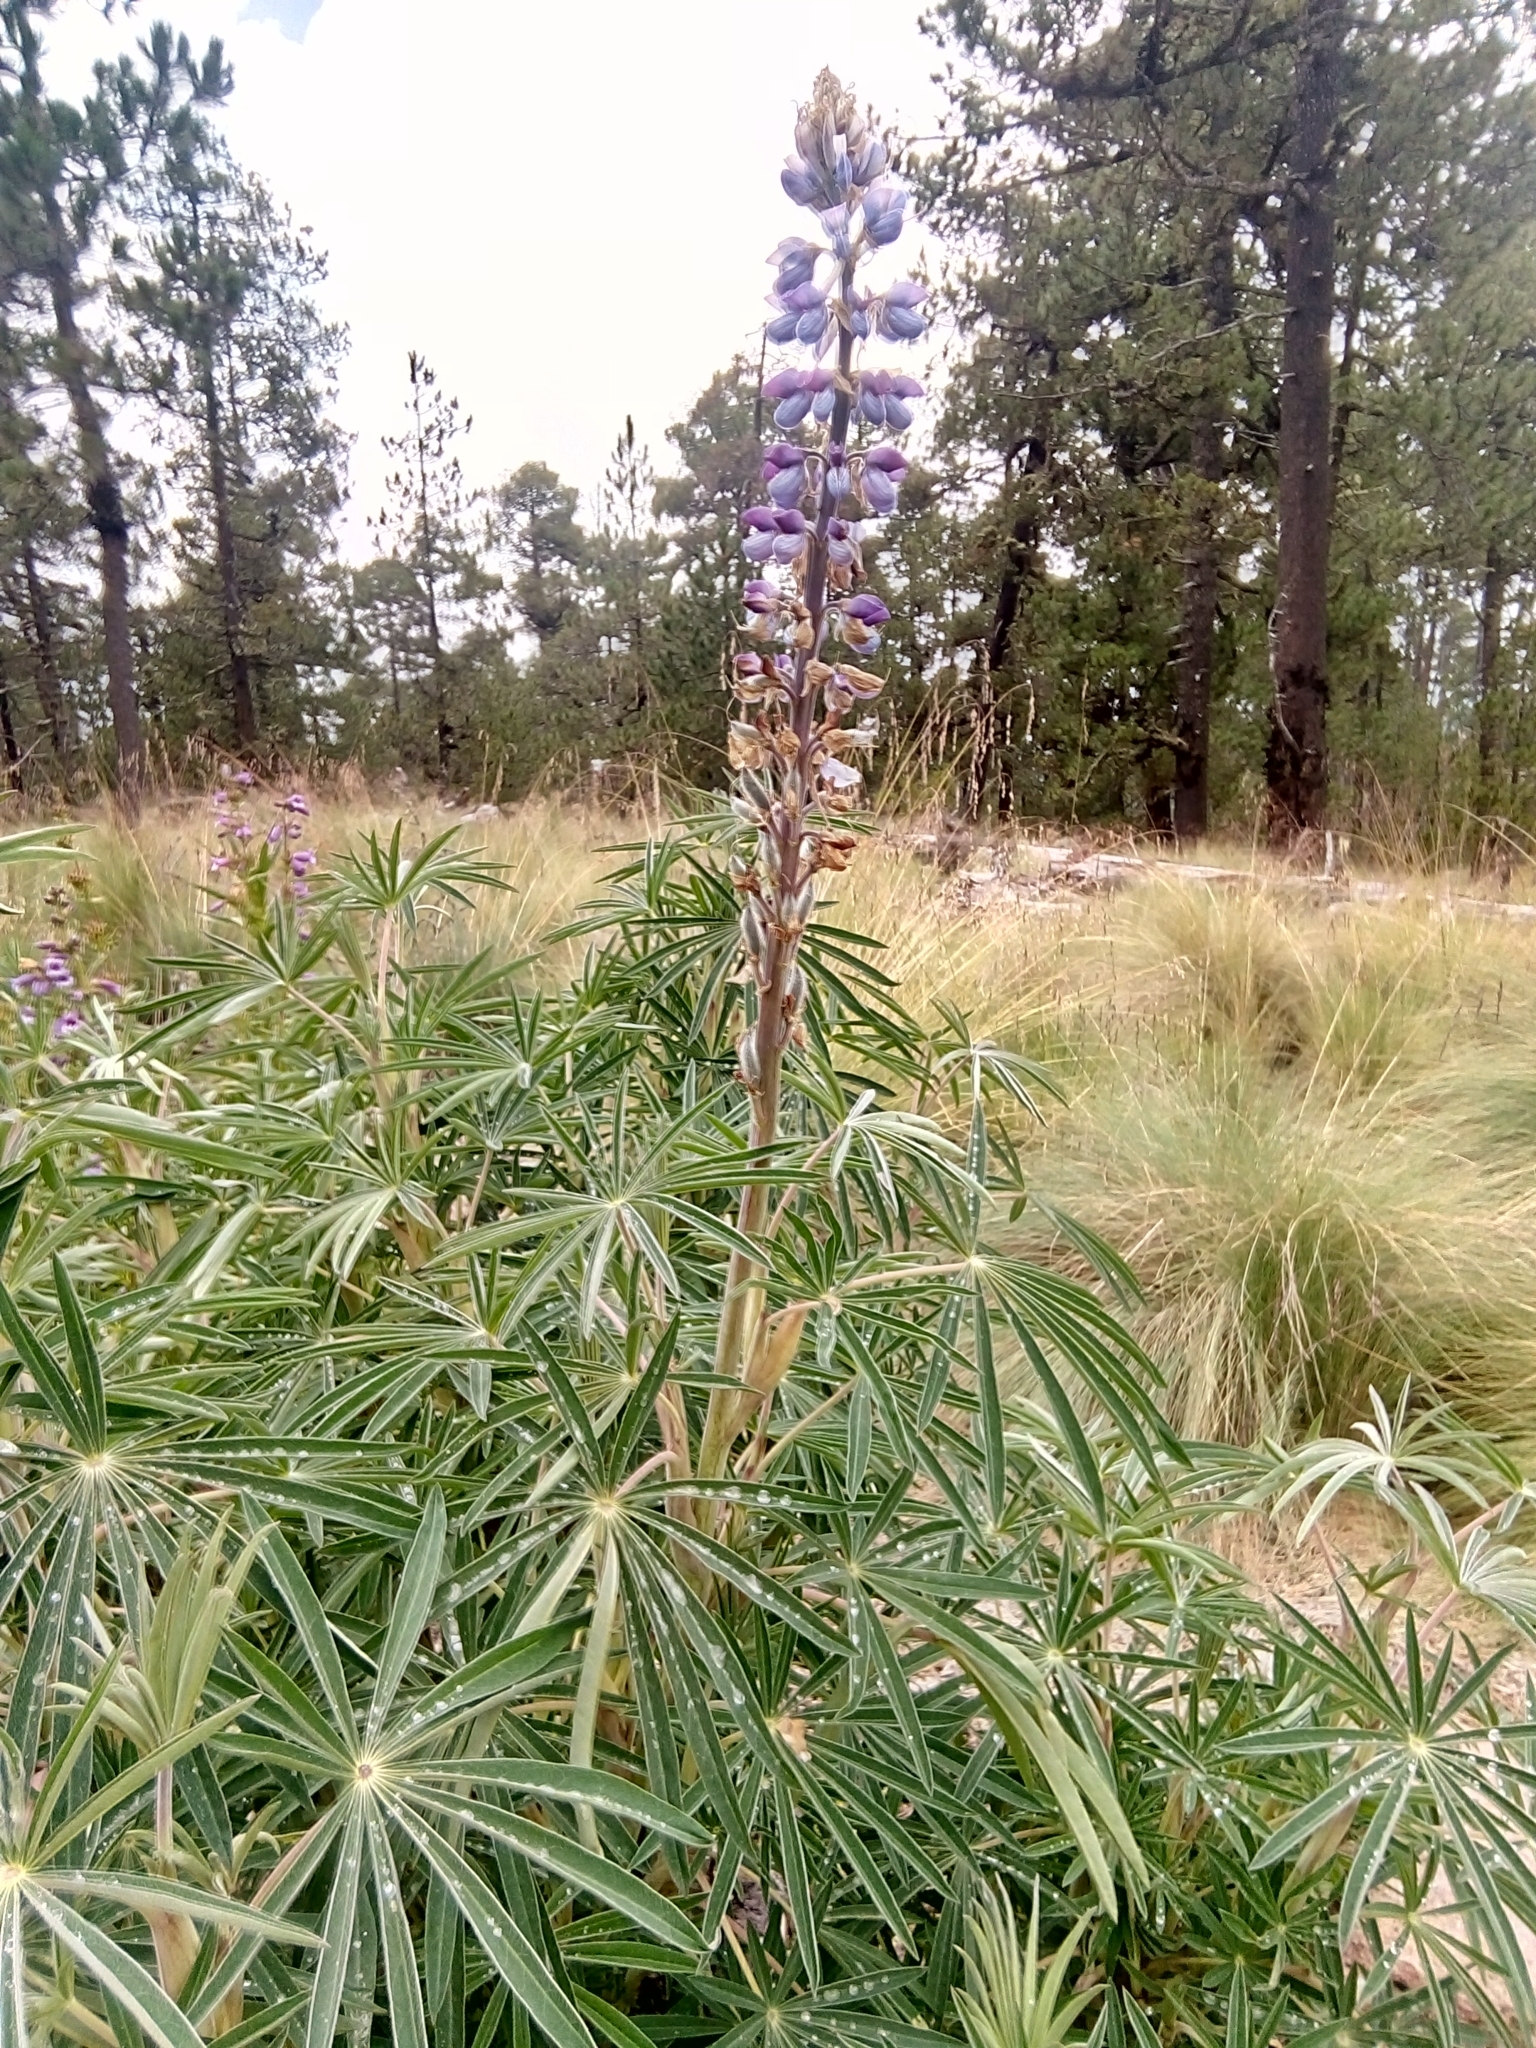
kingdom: Plantae
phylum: Tracheophyta
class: Magnoliopsida
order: Fabales
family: Fabaceae
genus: Lupinus
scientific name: Lupinus elegans
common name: Mexican lupine
